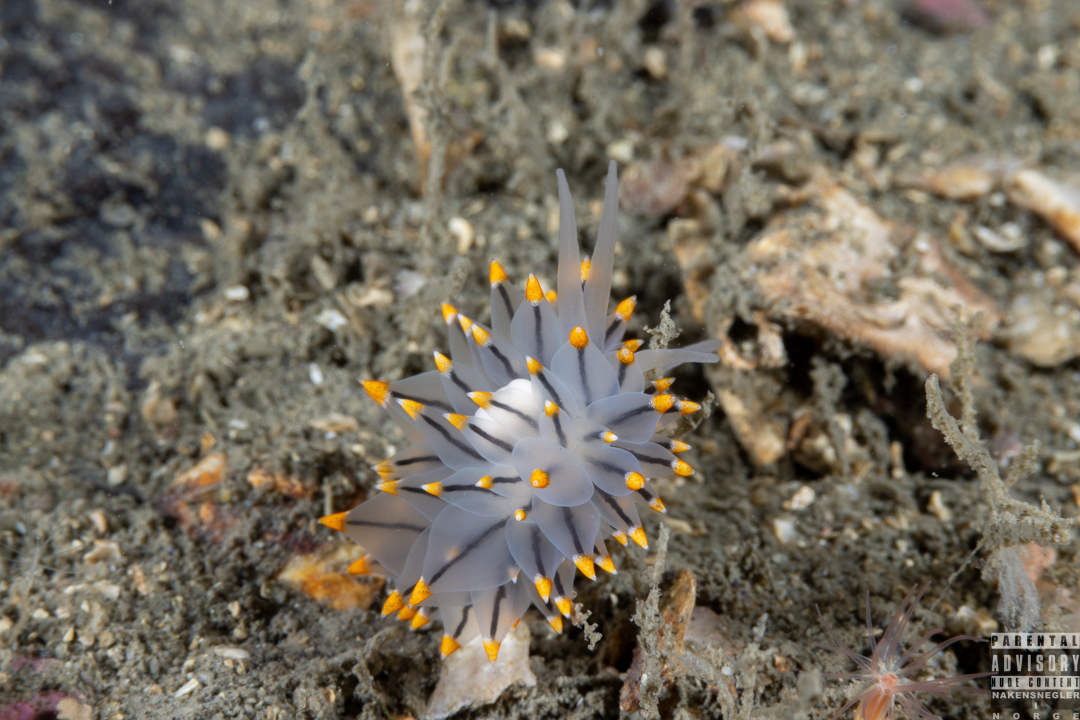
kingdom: Animalia
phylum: Mollusca
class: Gastropoda
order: Nudibranchia
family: Eubranchidae
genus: Eubranchus
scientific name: Eubranchus tricolor
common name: Painted balloon aeolis
